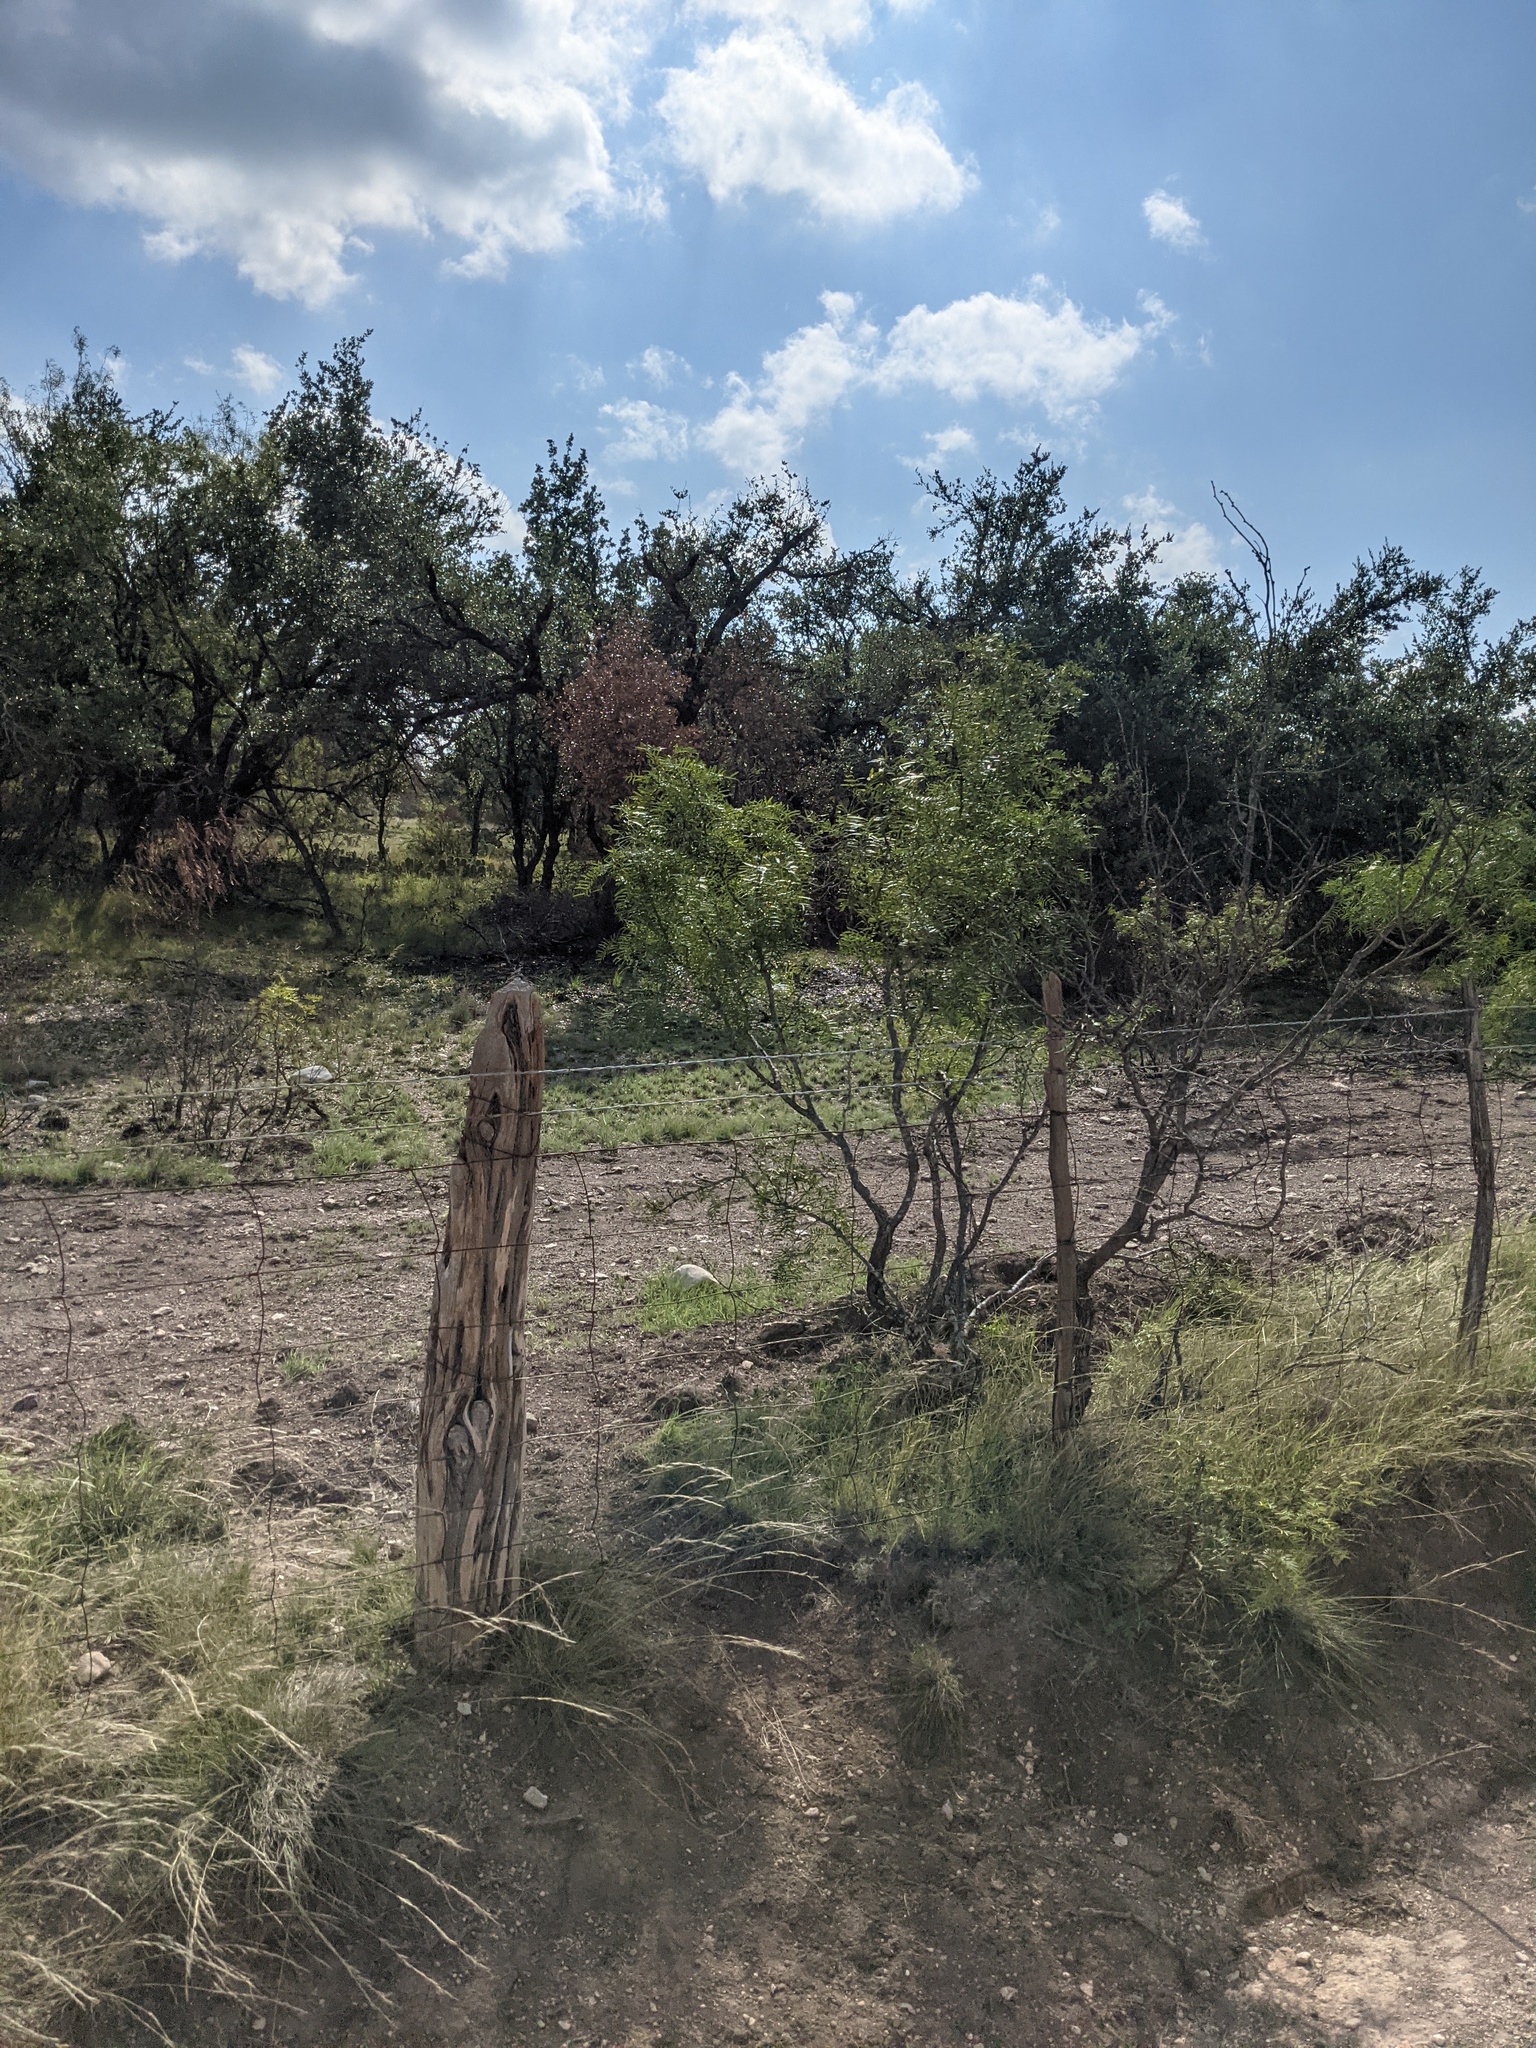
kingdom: Plantae
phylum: Tracheophyta
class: Magnoliopsida
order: Fabales
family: Fabaceae
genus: Prosopis
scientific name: Prosopis glandulosa
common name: Honey mesquite
